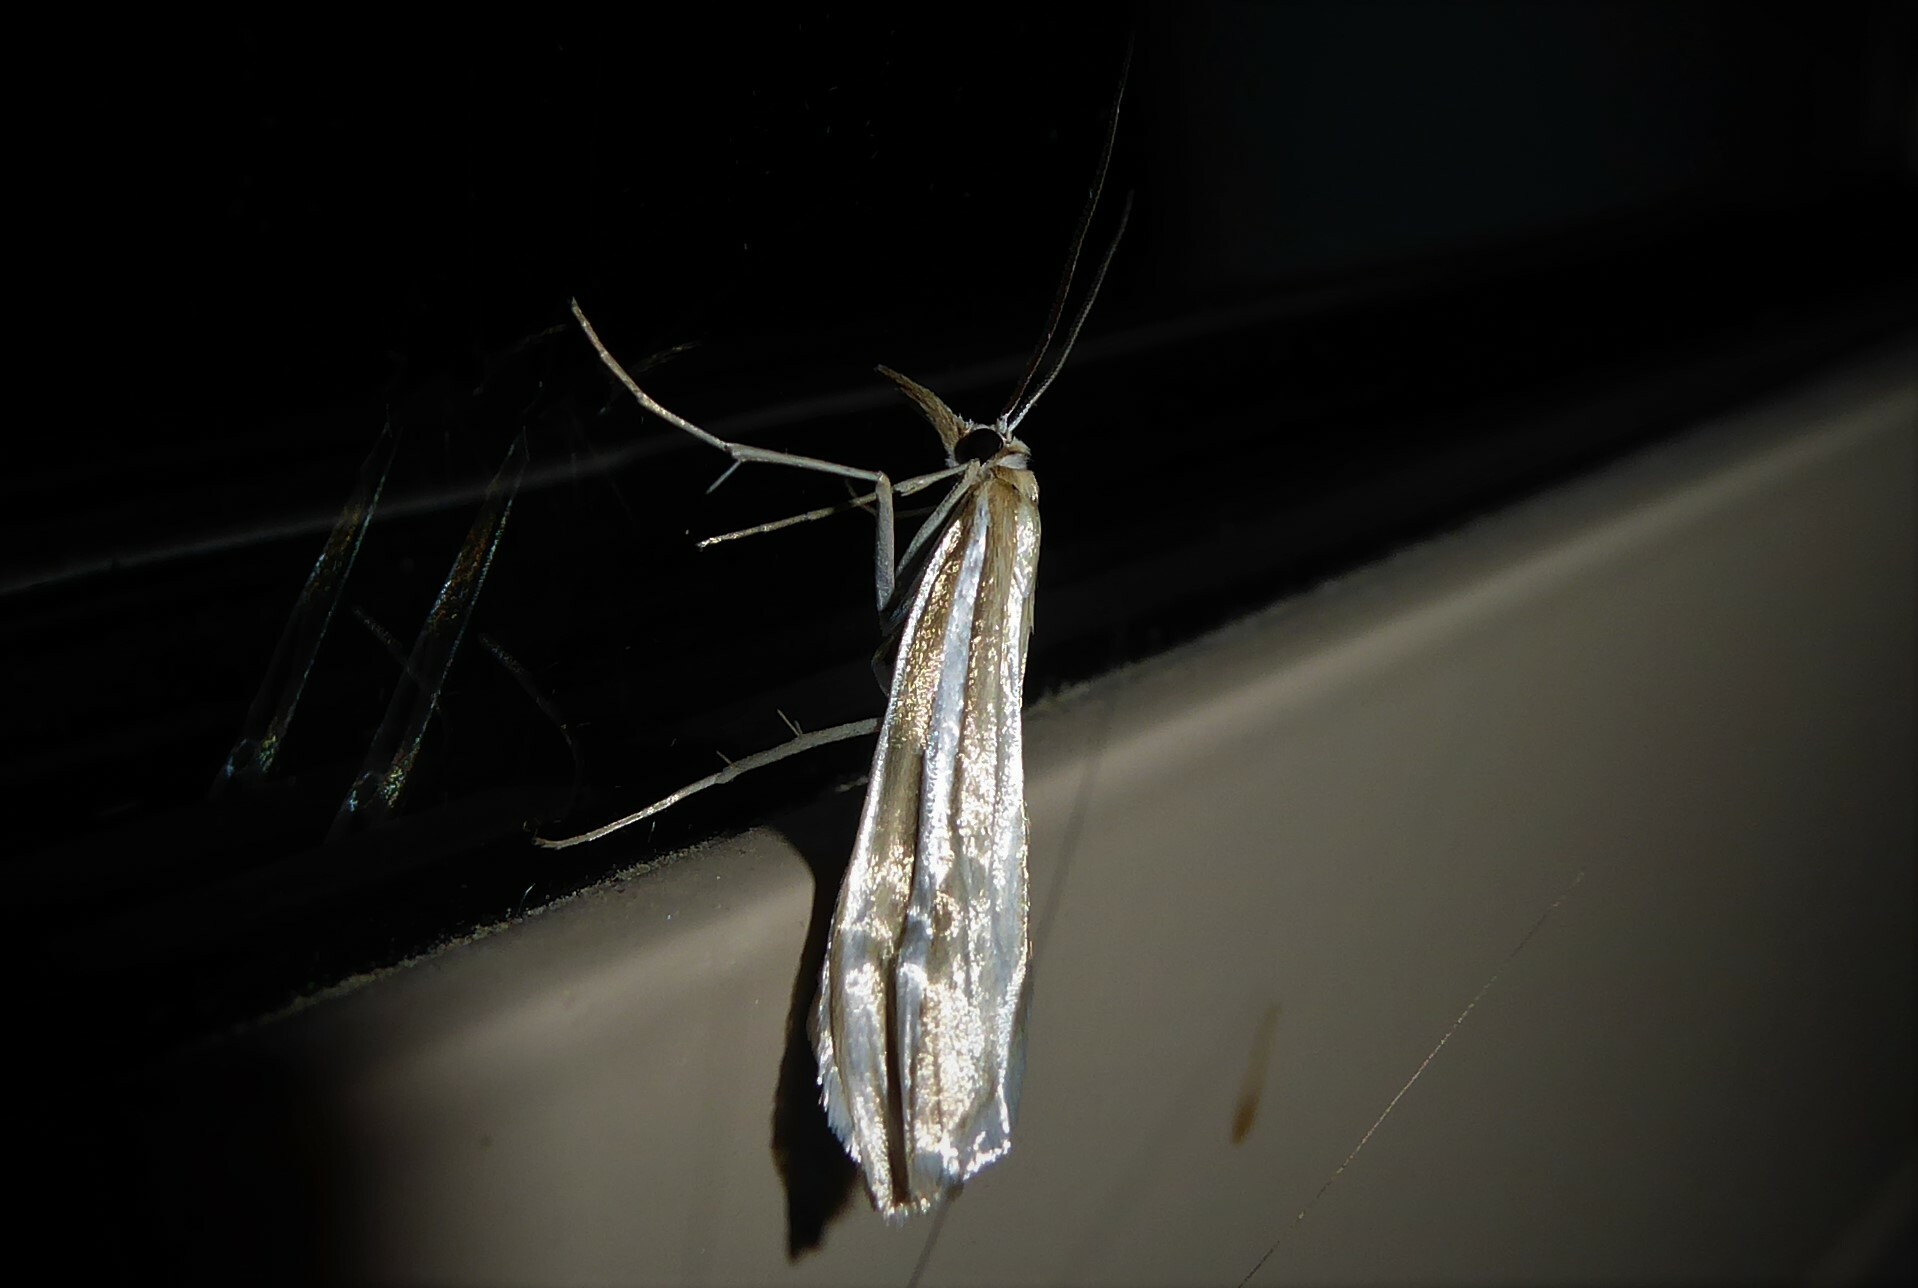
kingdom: Animalia
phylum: Arthropoda
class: Insecta
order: Lepidoptera
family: Crambidae
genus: Orocrambus
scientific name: Orocrambus vittellus
